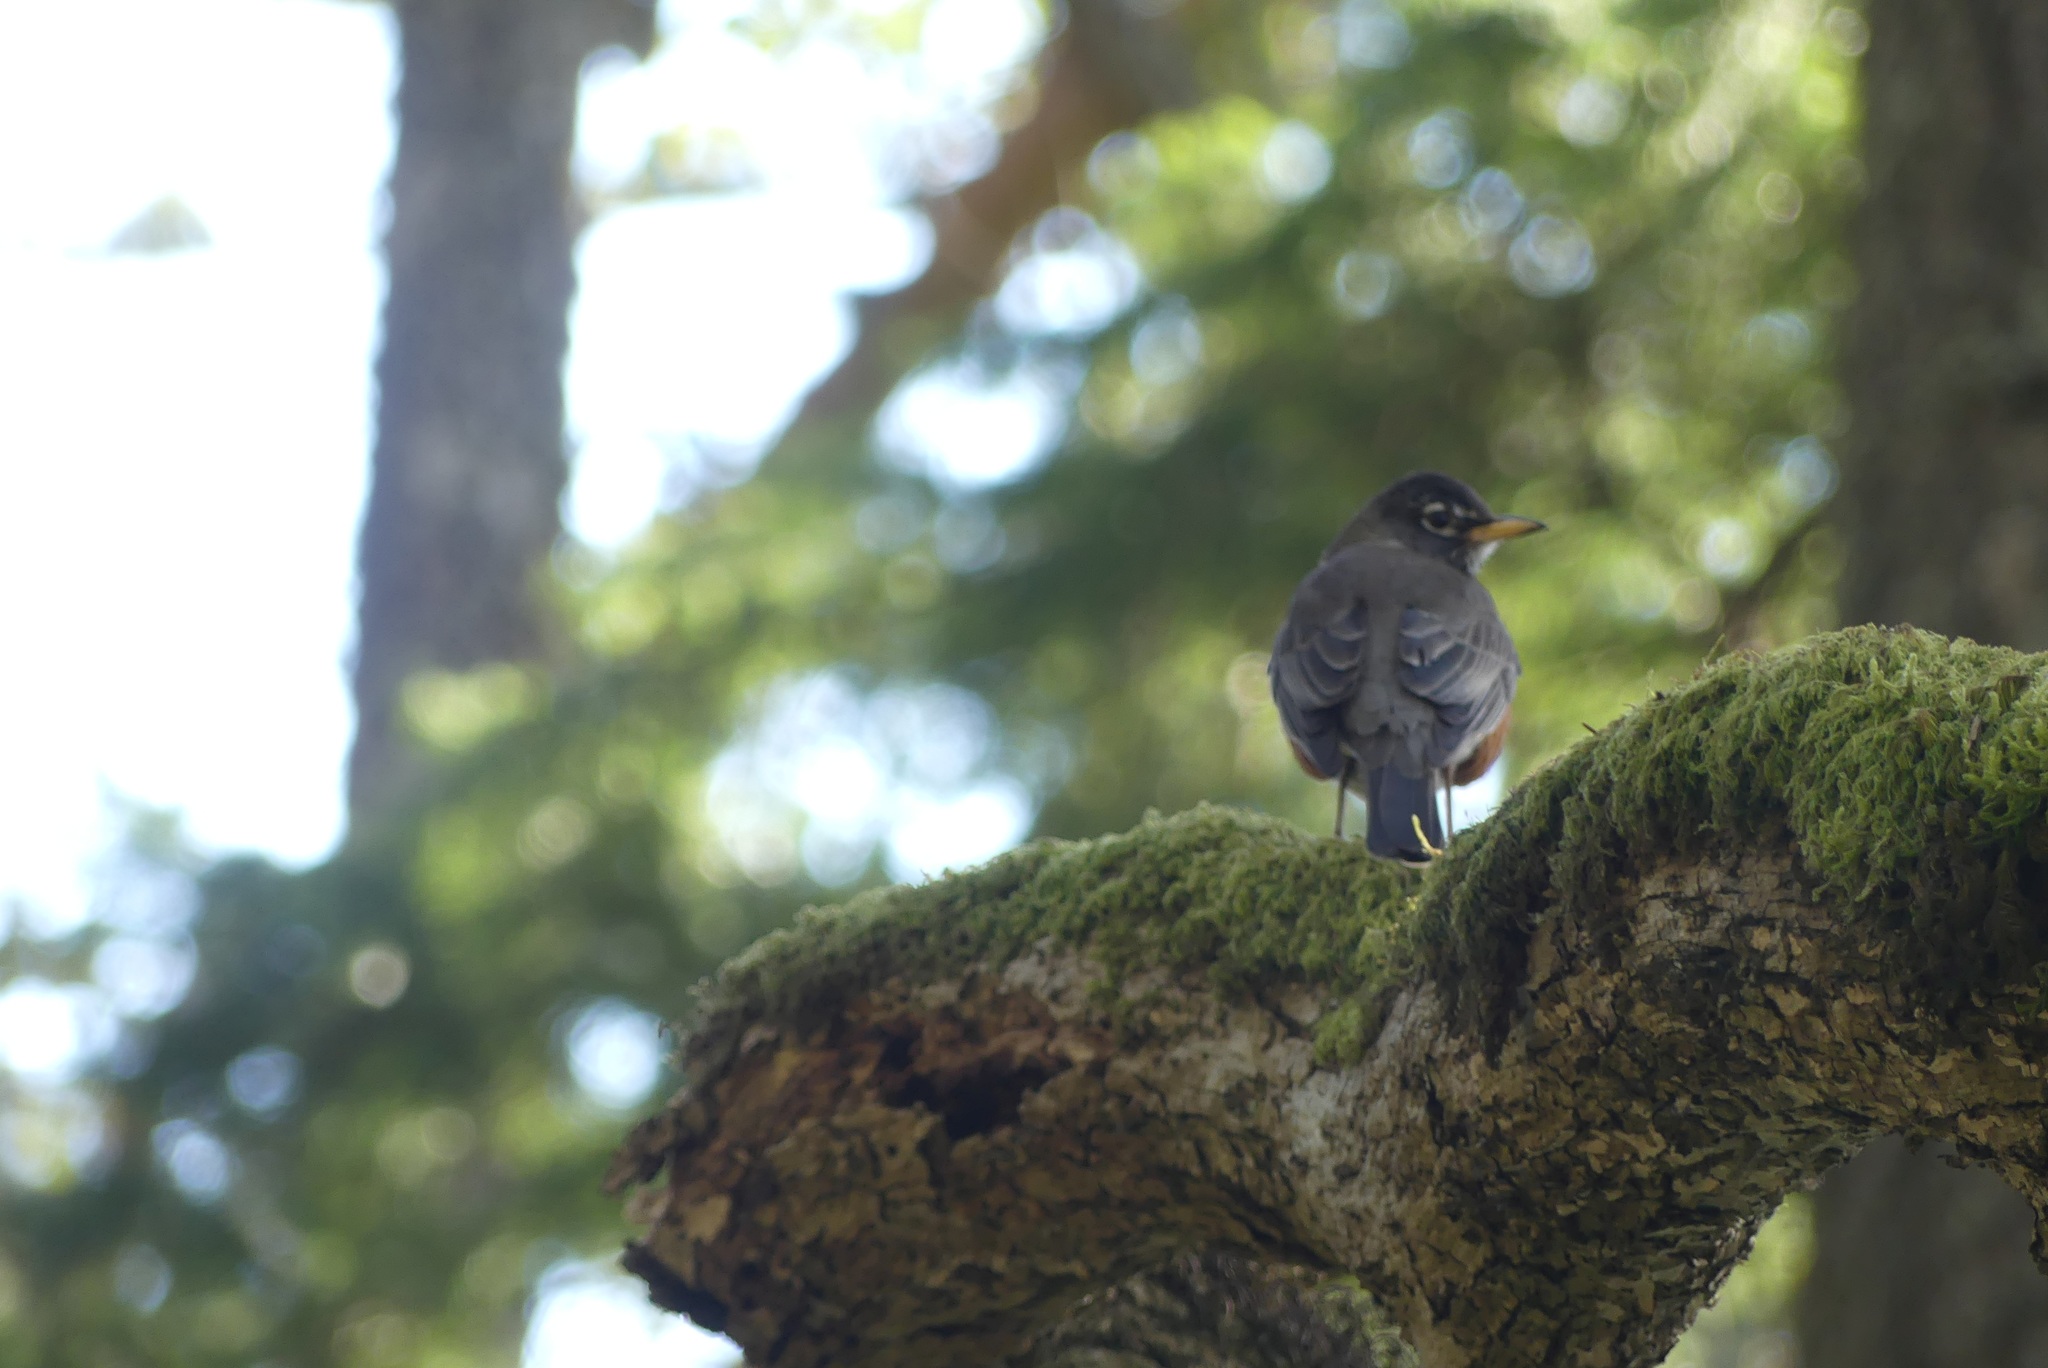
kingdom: Animalia
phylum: Chordata
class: Aves
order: Passeriformes
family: Turdidae
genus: Turdus
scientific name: Turdus migratorius
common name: American robin
